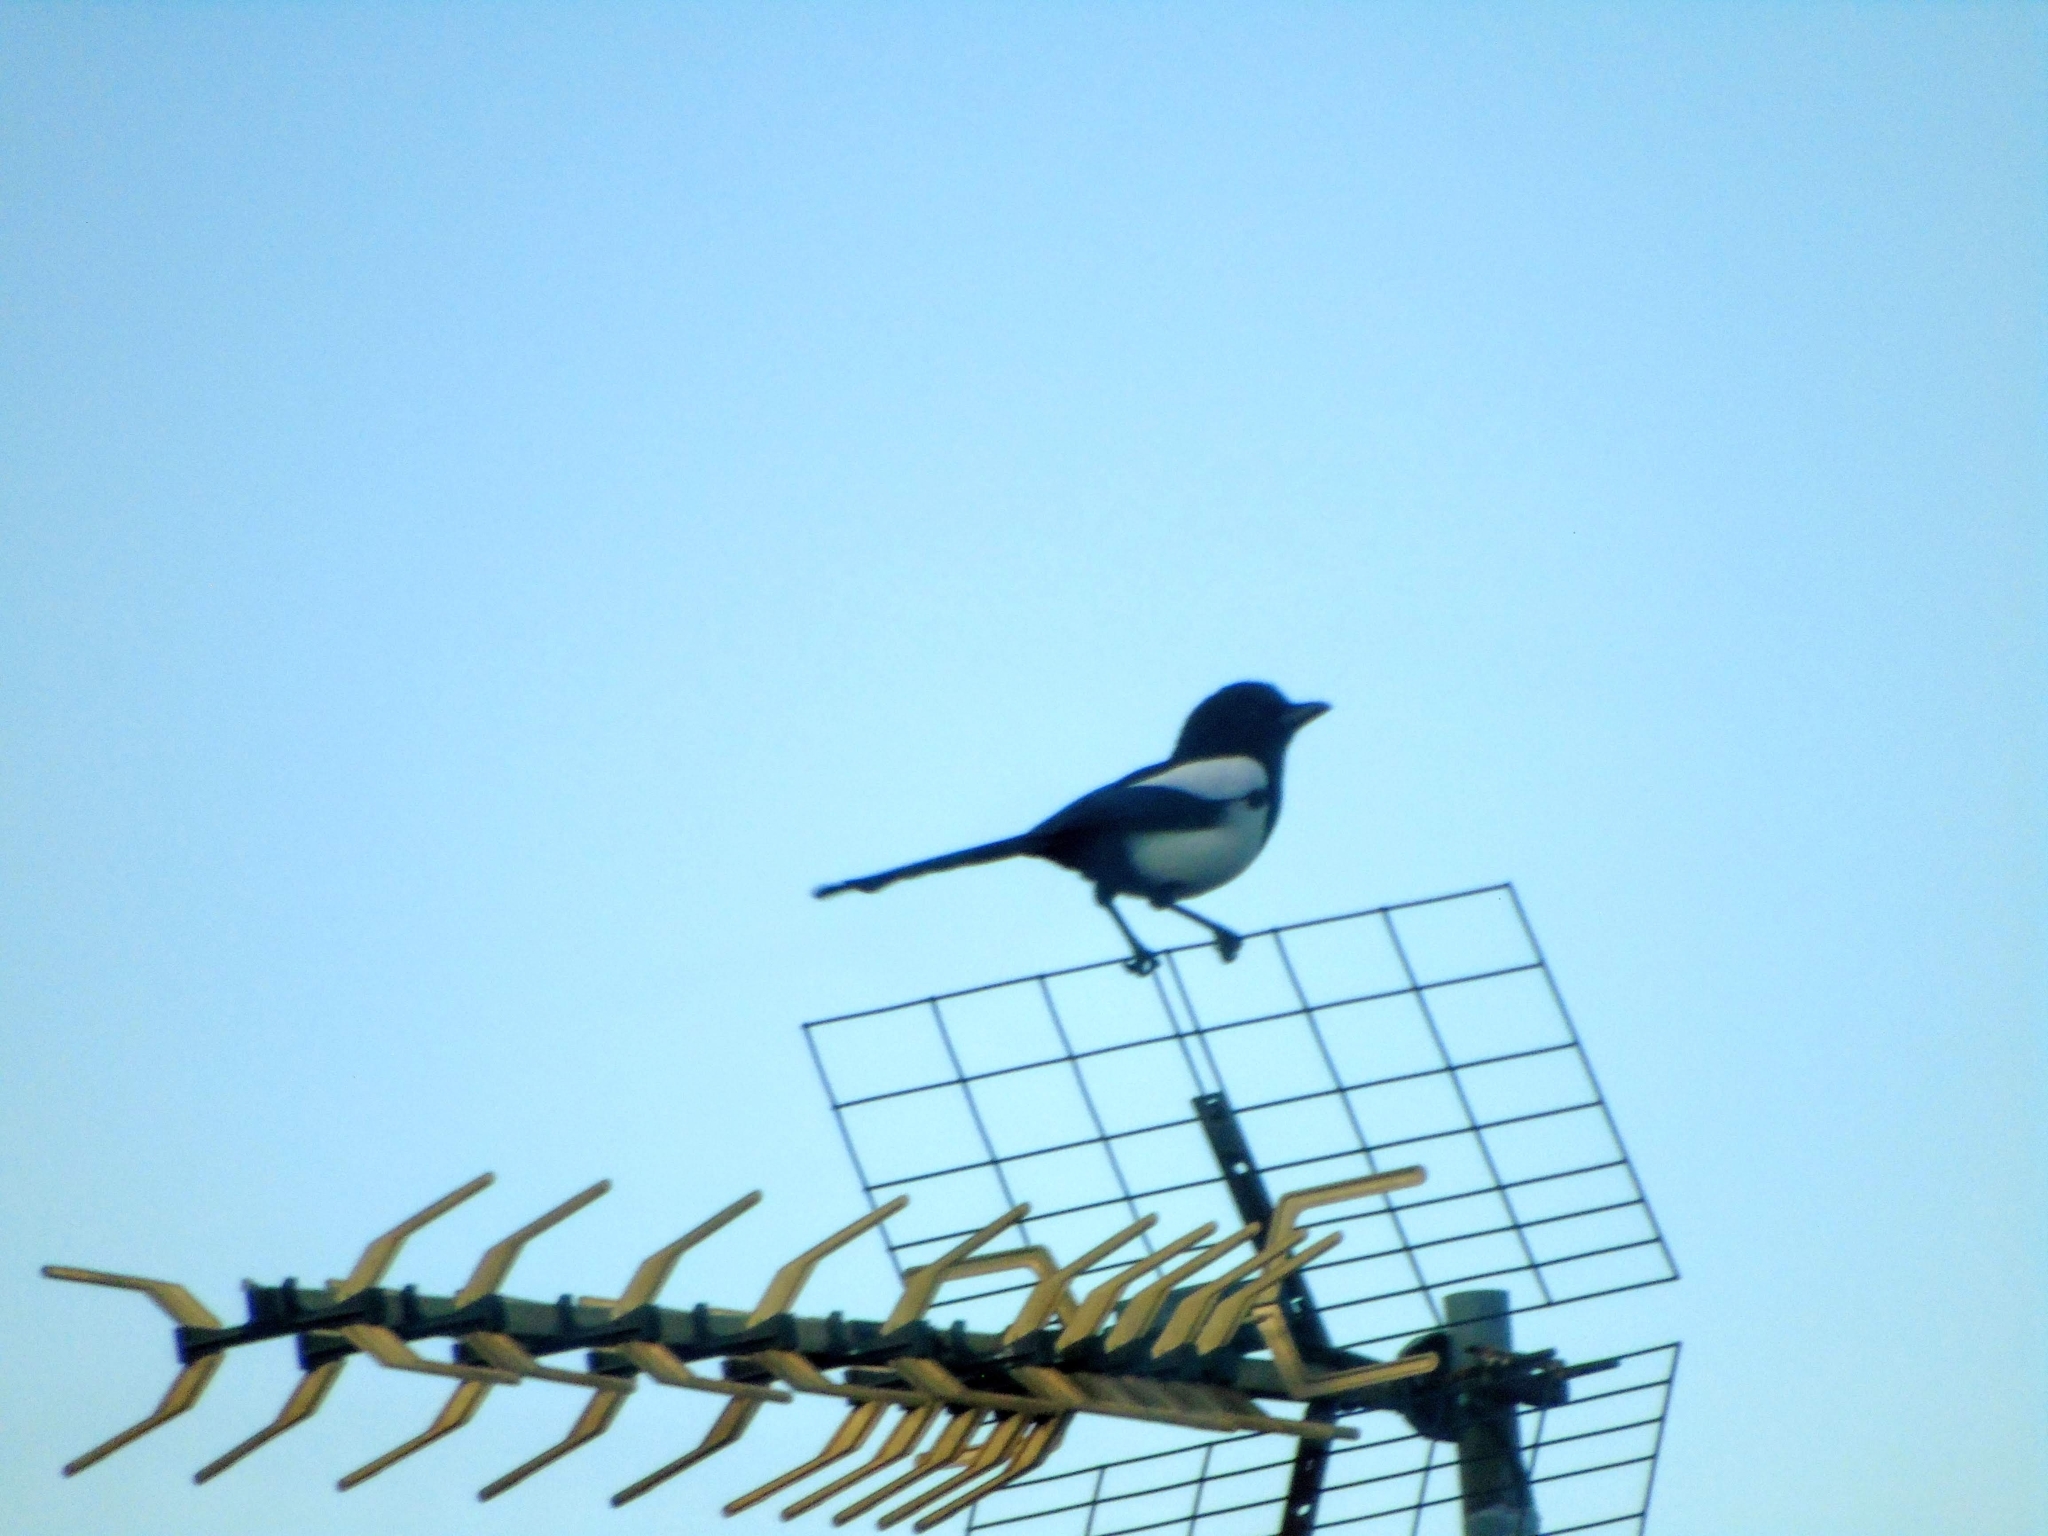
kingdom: Animalia
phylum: Chordata
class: Aves
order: Passeriformes
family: Corvidae
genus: Pica
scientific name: Pica pica
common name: Eurasian magpie
